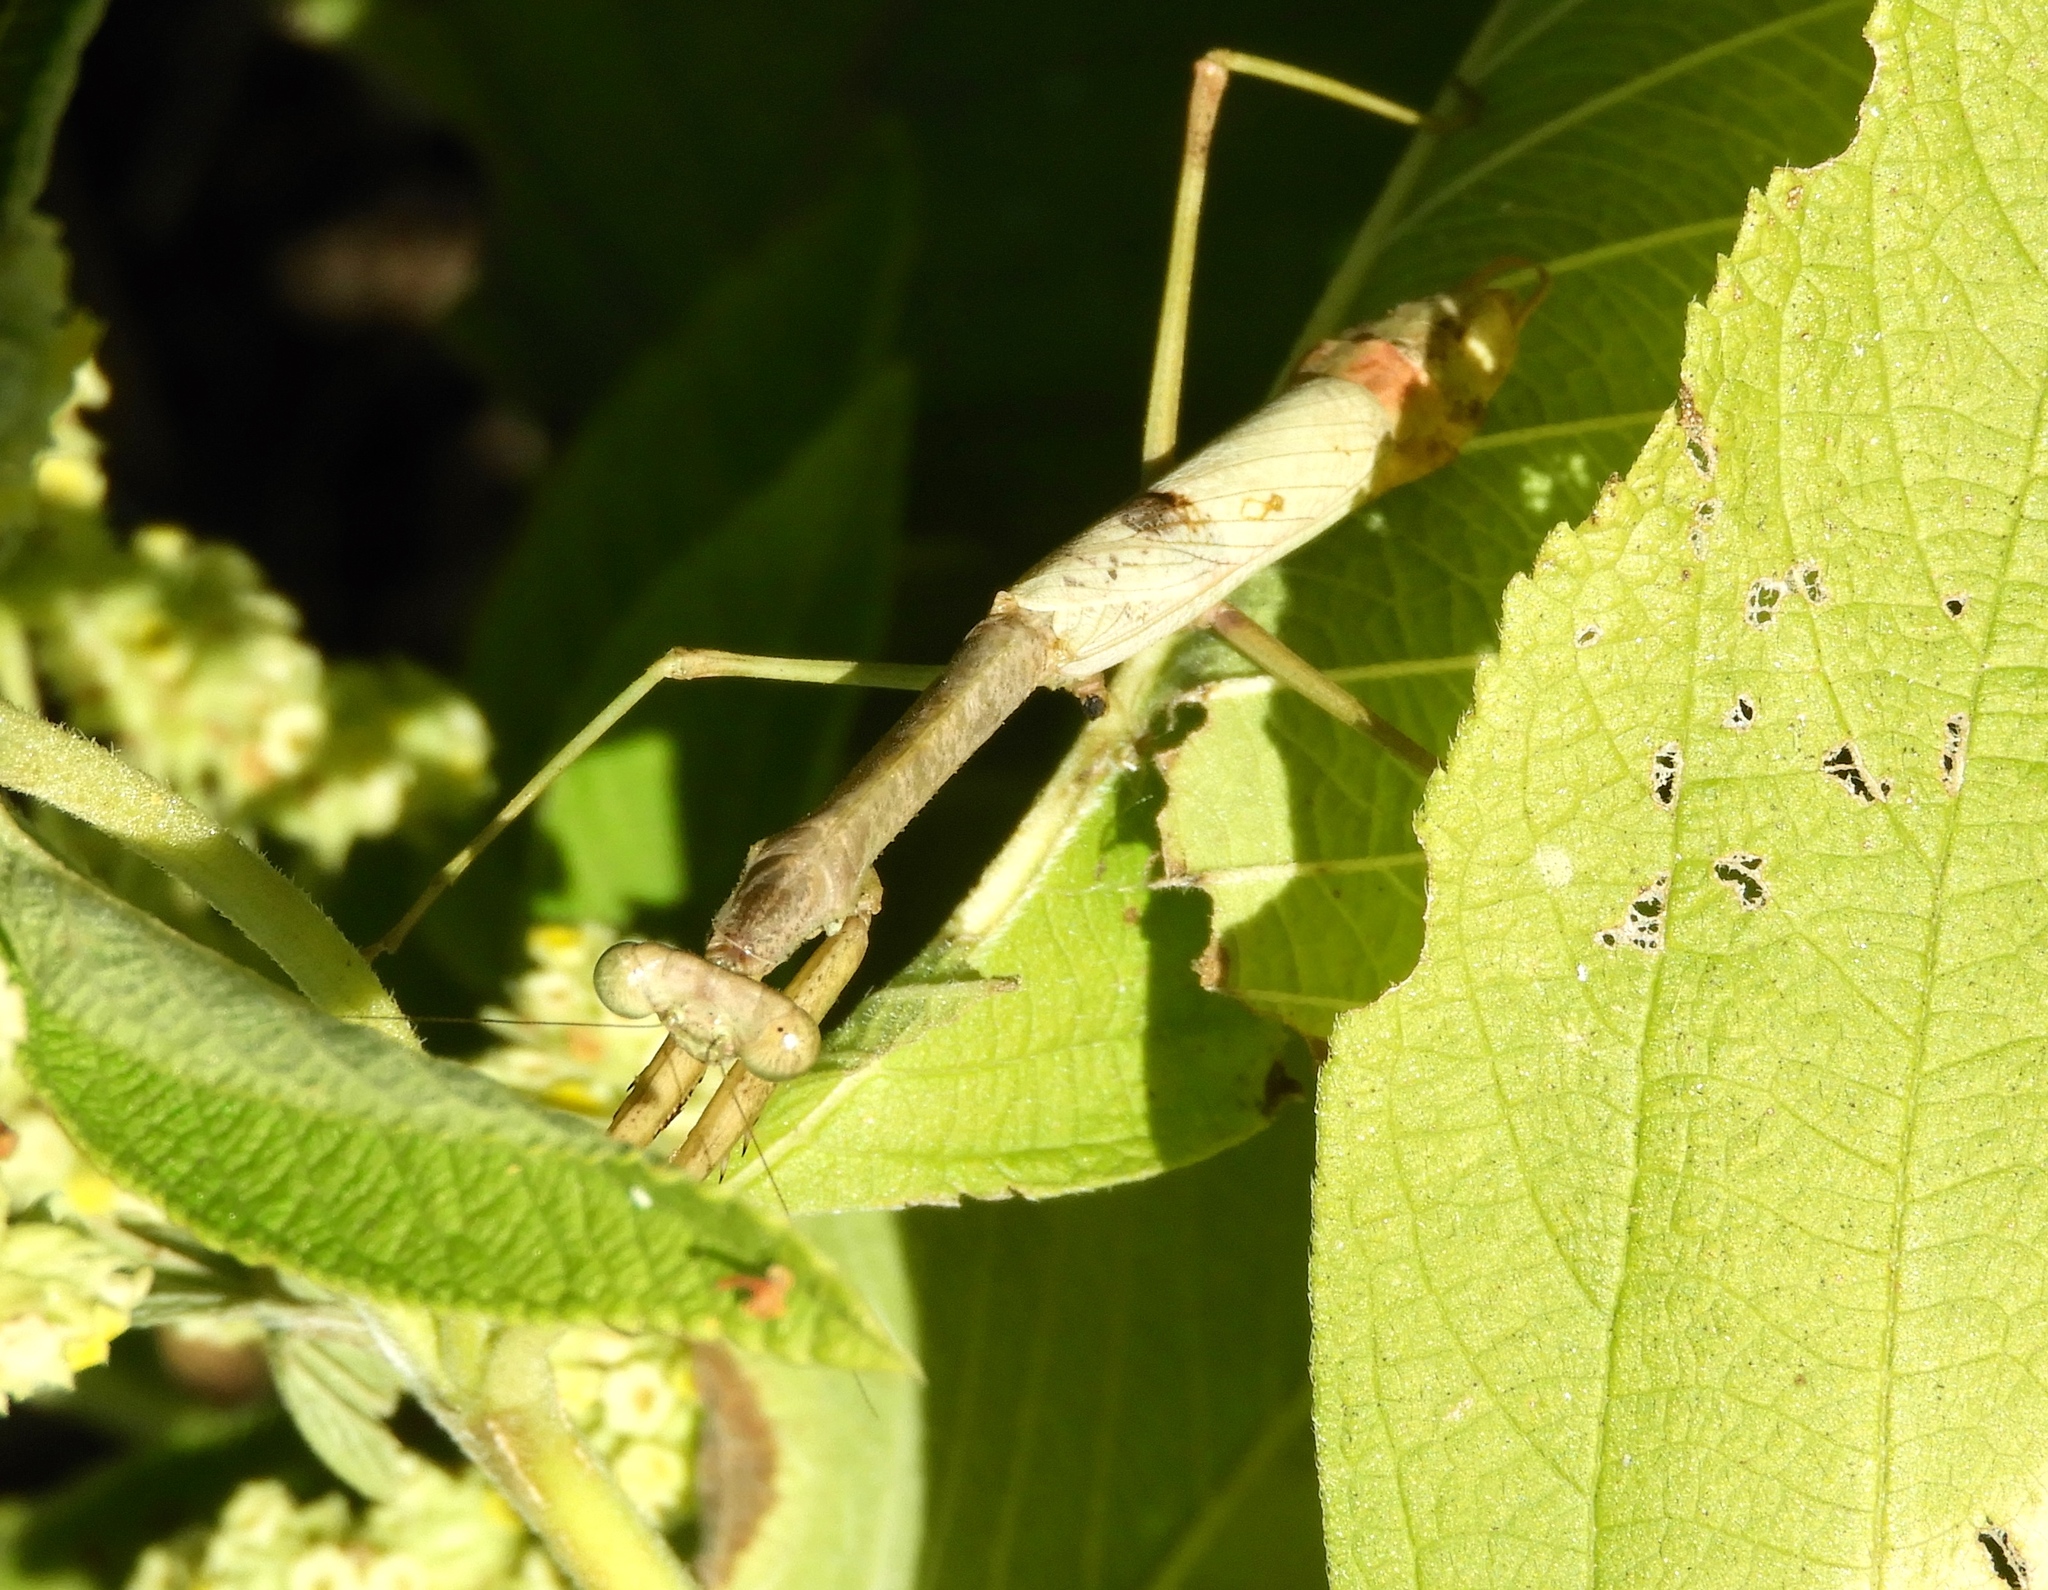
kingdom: Animalia
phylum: Arthropoda
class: Insecta
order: Mantodea
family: Mantidae
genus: Stagmomantis
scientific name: Stagmomantis
